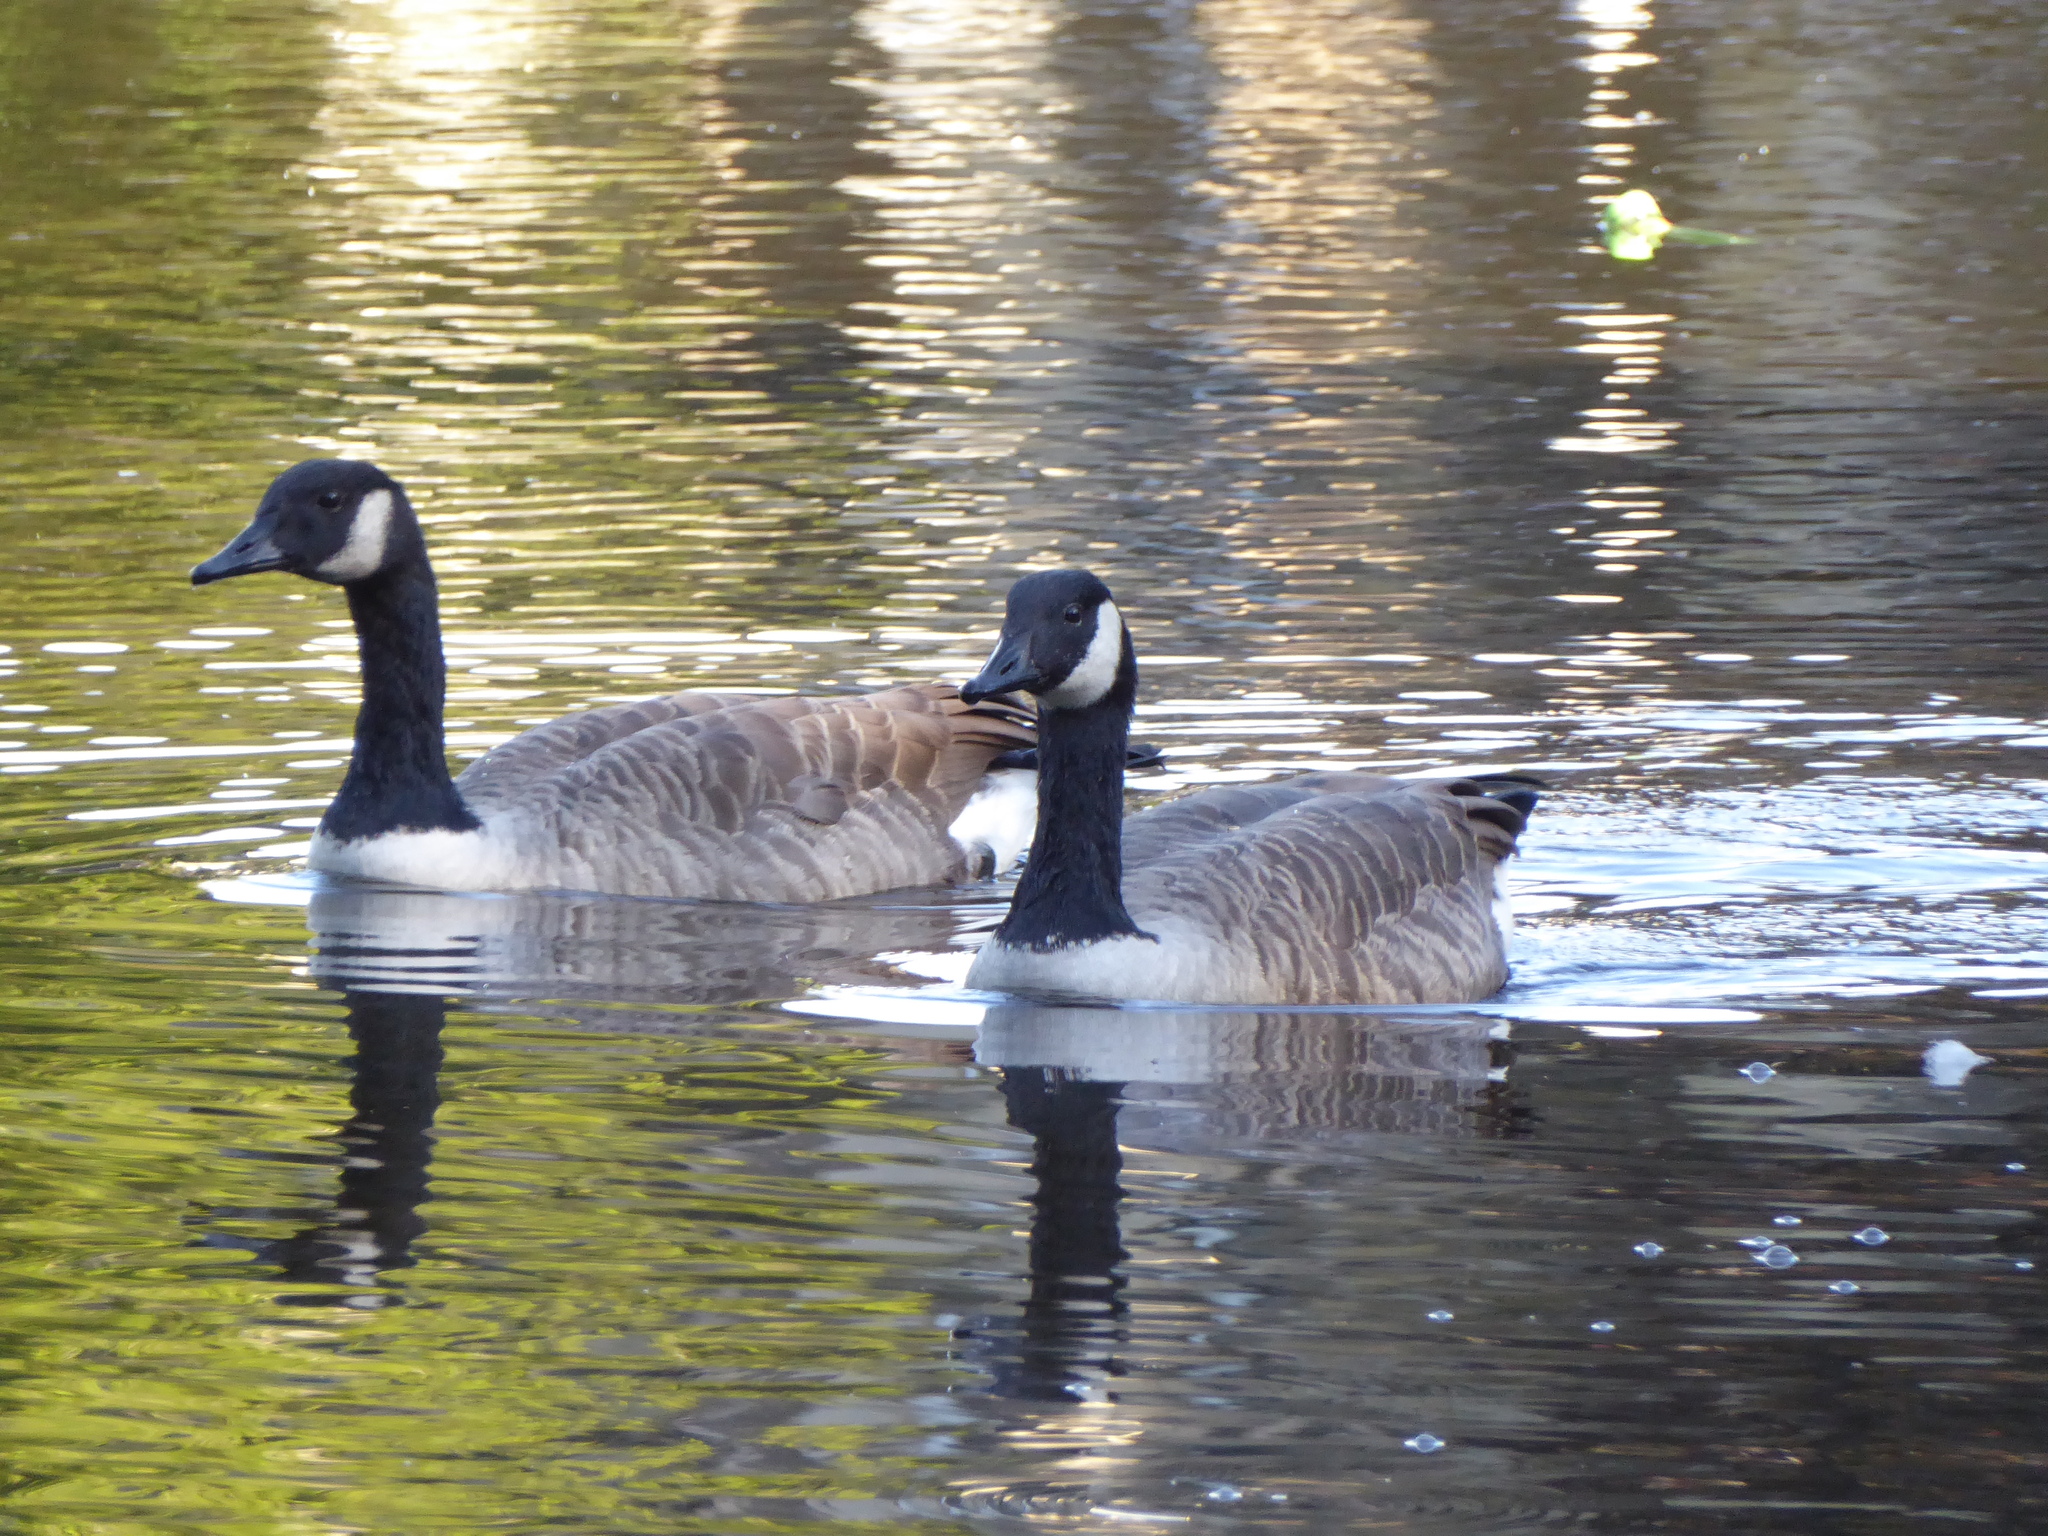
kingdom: Animalia
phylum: Chordata
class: Aves
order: Anseriformes
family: Anatidae
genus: Branta
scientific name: Branta canadensis
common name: Canada goose
